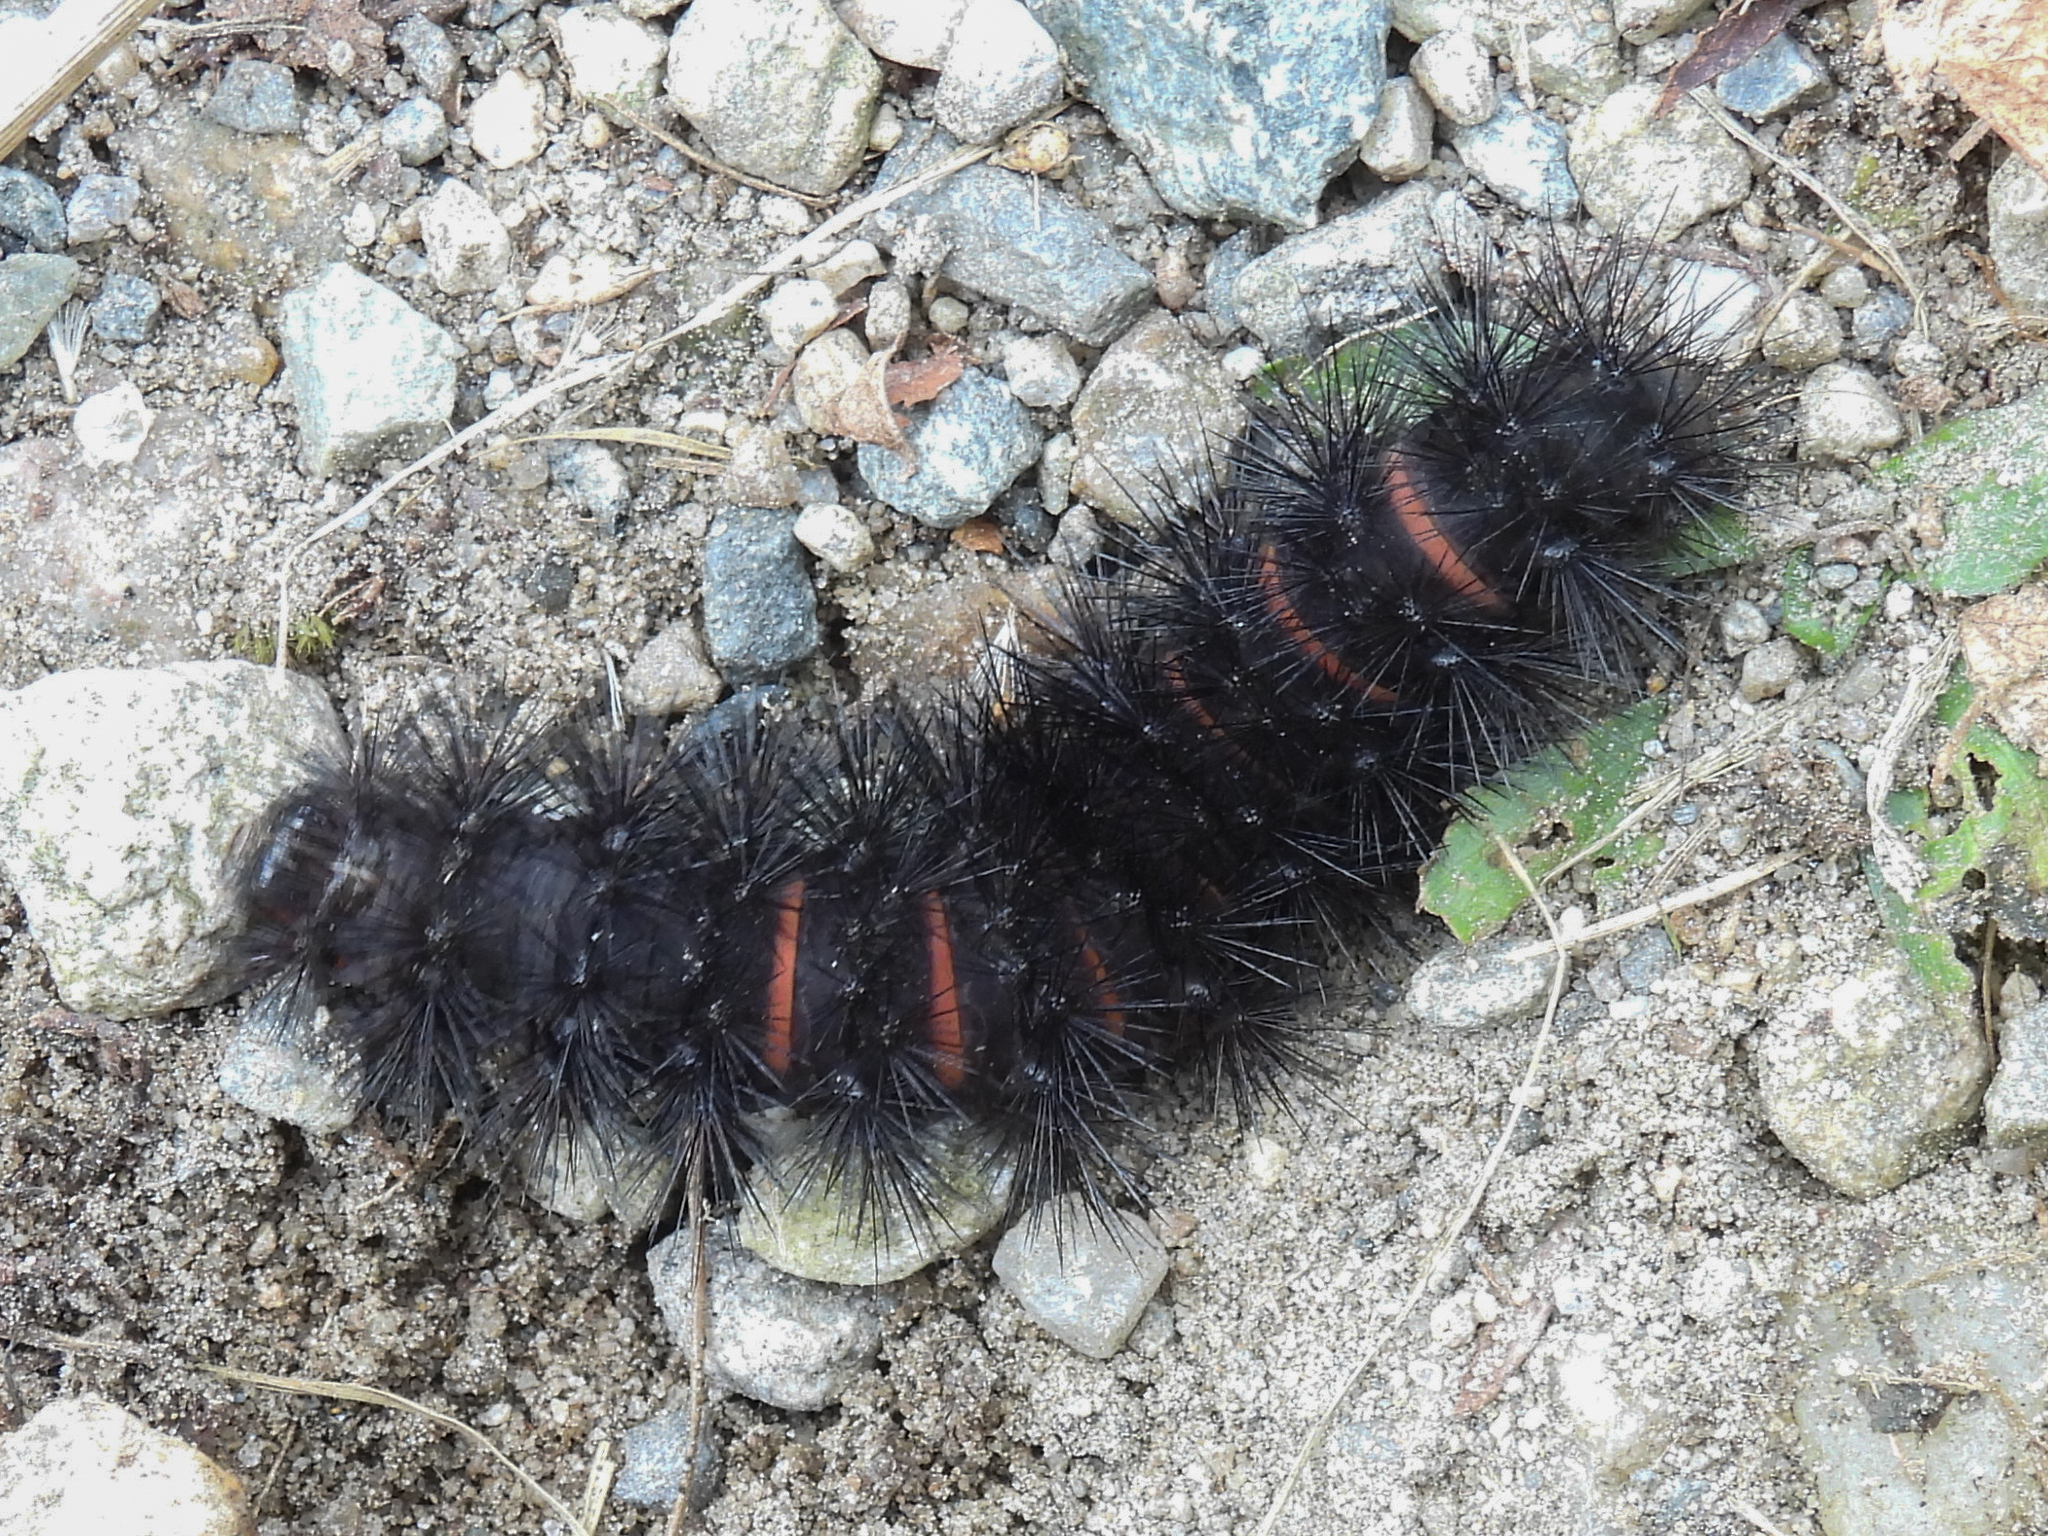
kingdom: Animalia
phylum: Arthropoda
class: Insecta
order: Lepidoptera
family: Erebidae
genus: Hypercompe
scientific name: Hypercompe scribonia
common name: Giant leopard moth
